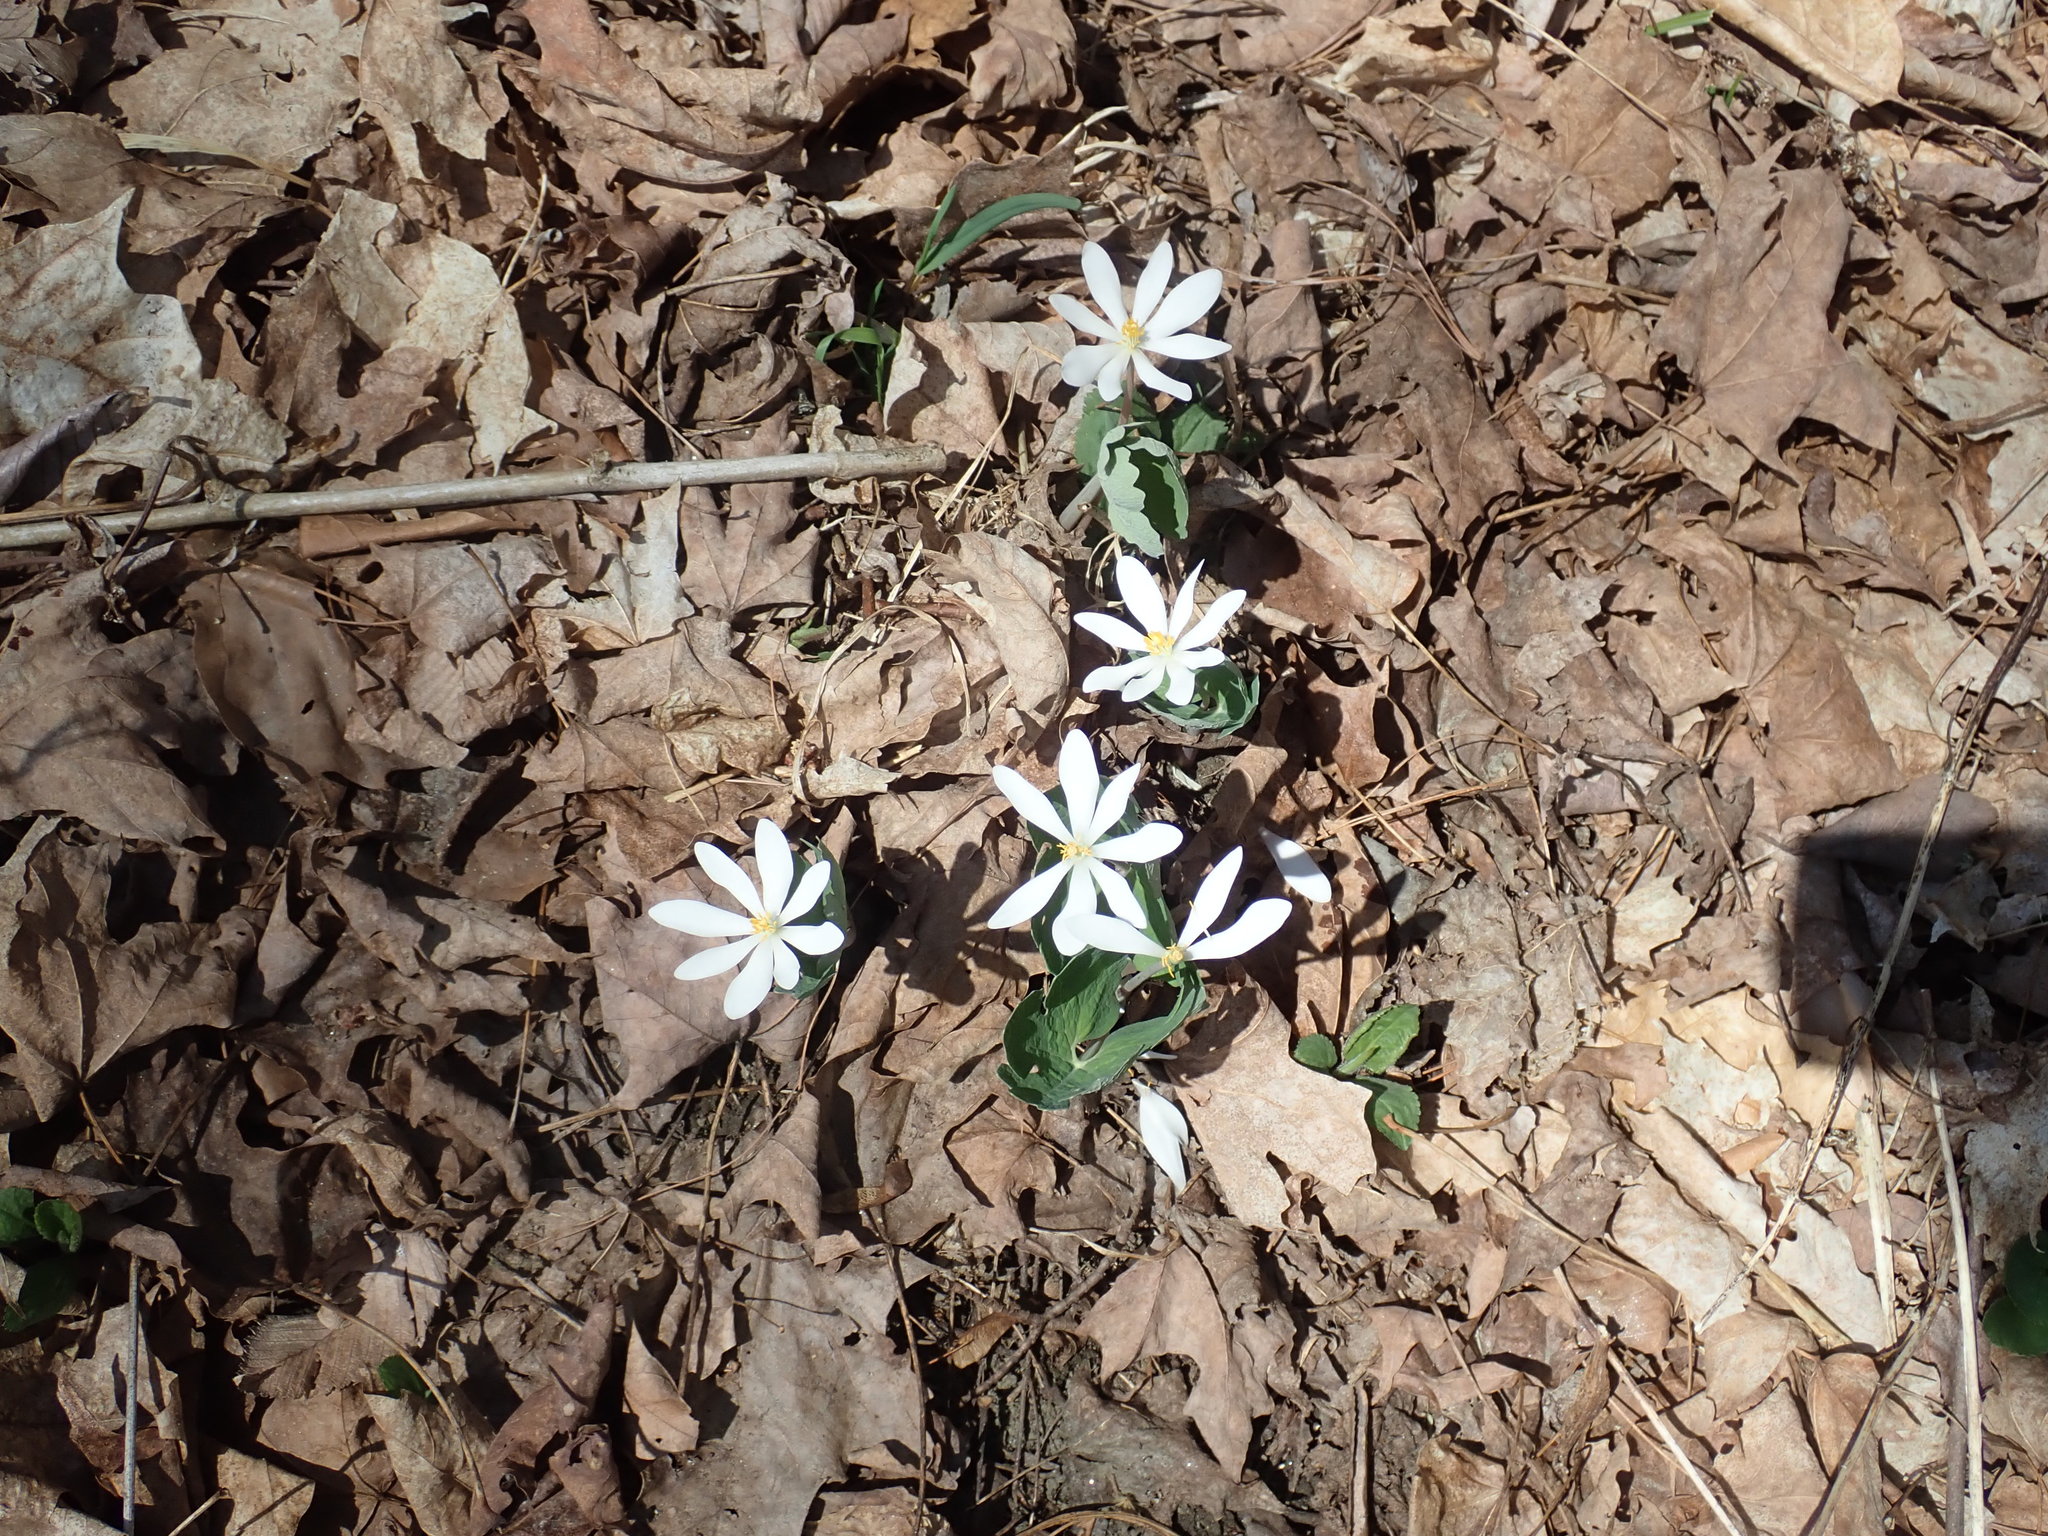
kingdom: Plantae
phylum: Tracheophyta
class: Magnoliopsida
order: Ranunculales
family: Papaveraceae
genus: Sanguinaria
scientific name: Sanguinaria canadensis
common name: Bloodroot
